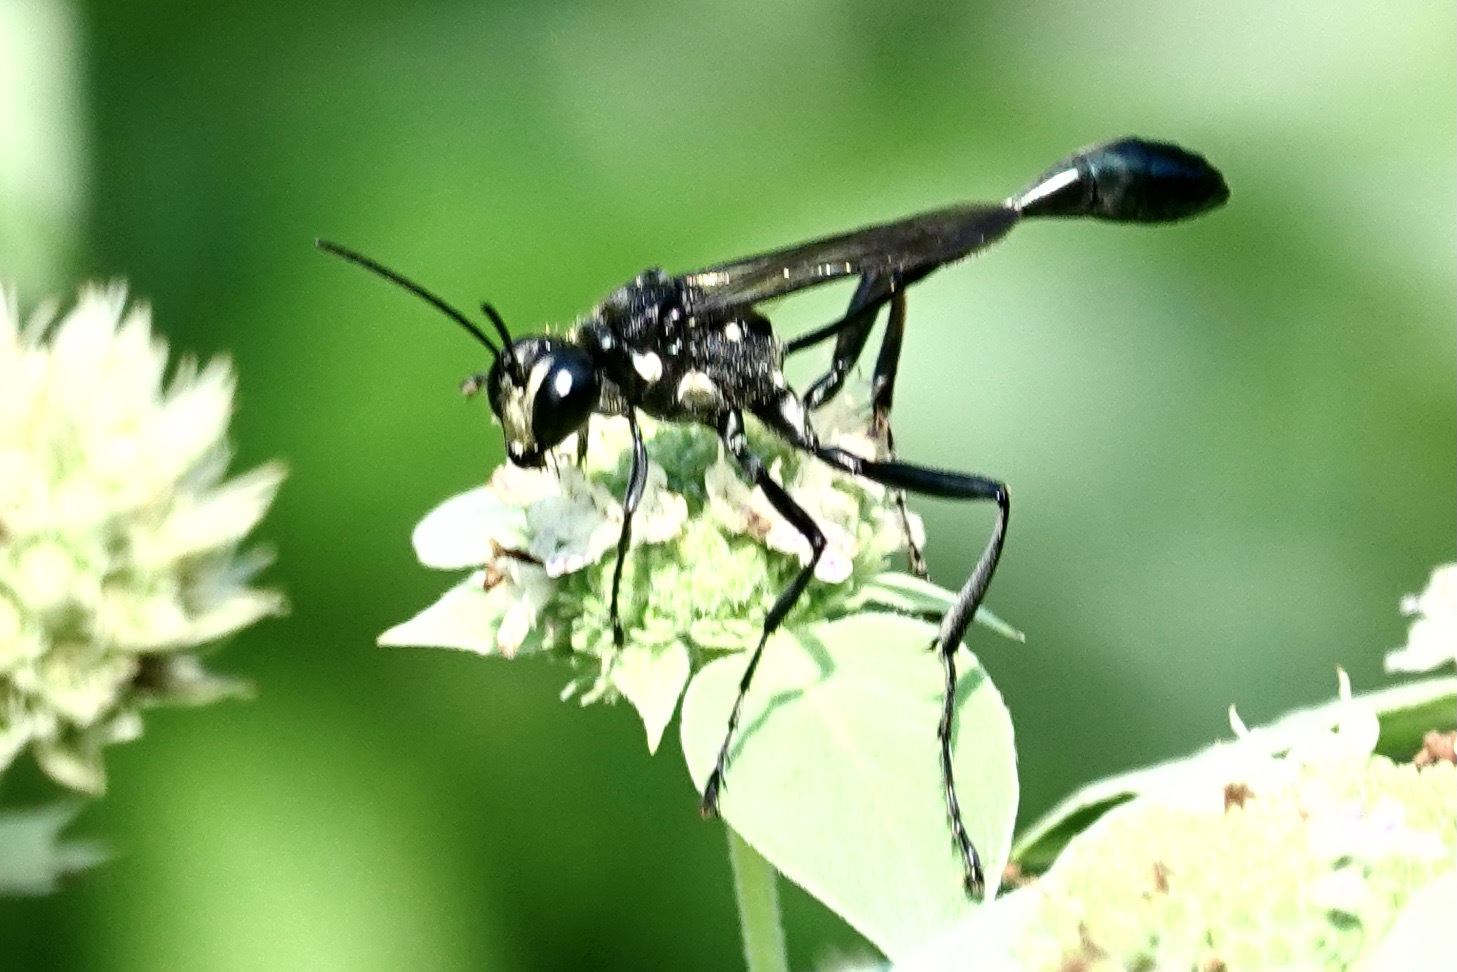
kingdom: Animalia
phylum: Arthropoda
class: Insecta
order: Hymenoptera
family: Sphecidae
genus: Eremnophila
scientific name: Eremnophila aureonotata
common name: Gold-marked thread-waisted wasp
